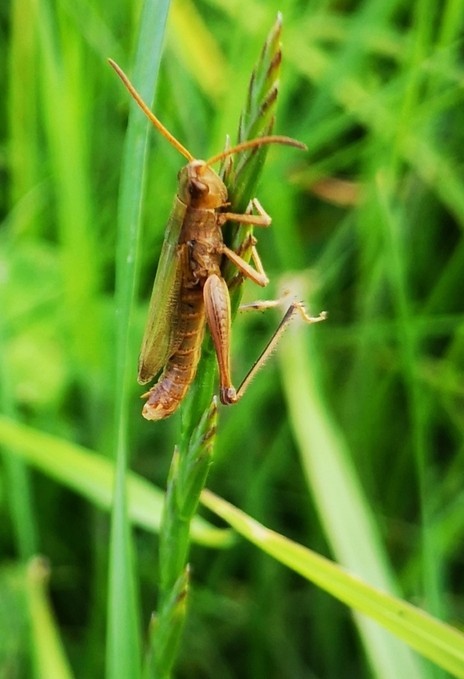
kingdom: Animalia
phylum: Arthropoda
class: Insecta
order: Orthoptera
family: Acrididae
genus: Chorthippus
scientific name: Chorthippus albomarginatus
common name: Lesser marsh grasshopper
